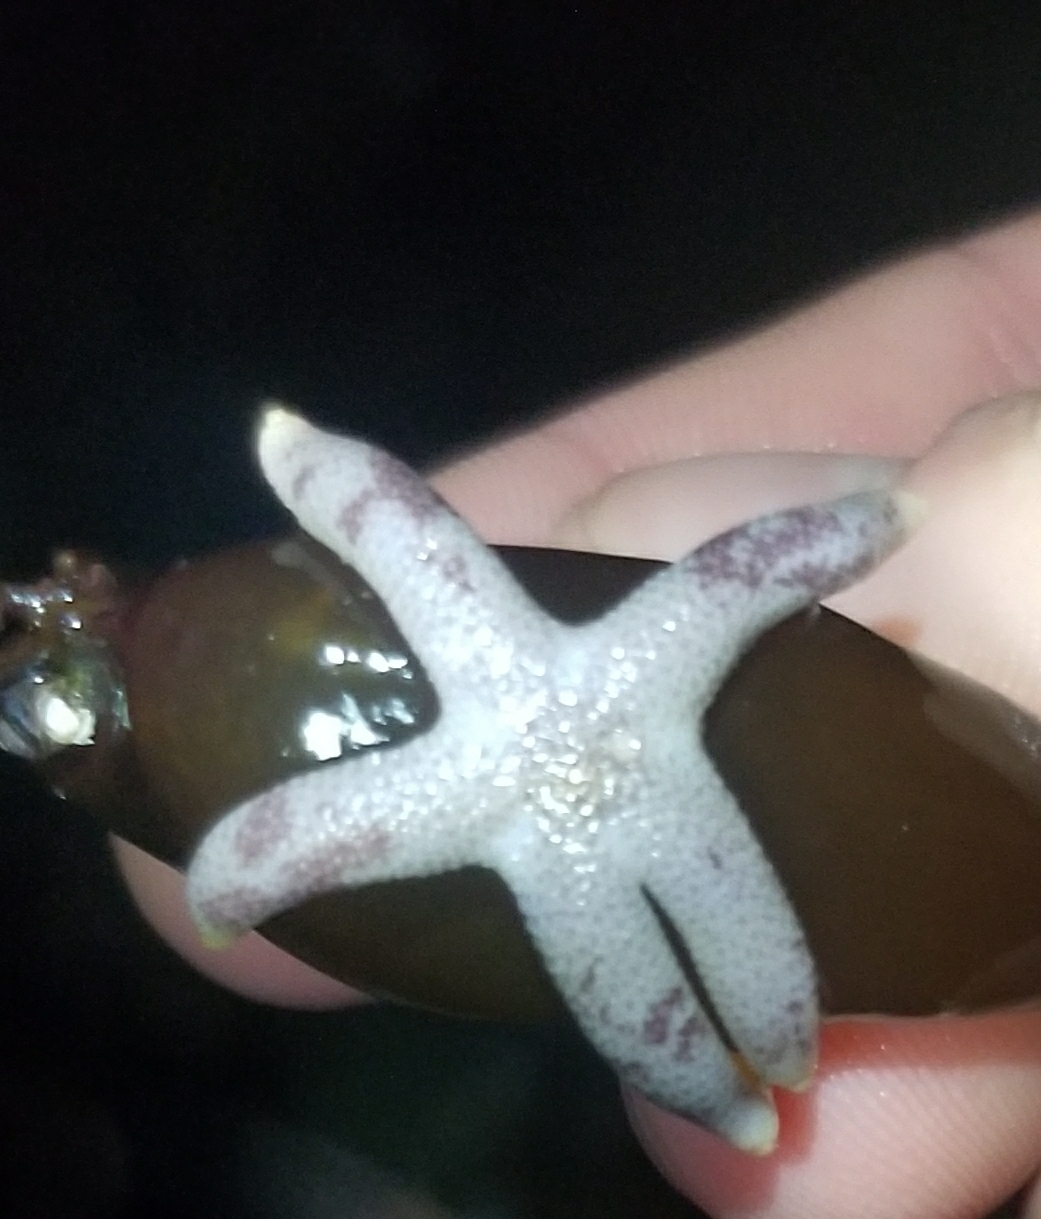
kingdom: Animalia
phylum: Echinodermata
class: Asteroidea
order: Spinulosida
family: Echinasteridae
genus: Henricia
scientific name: Henricia pumila
